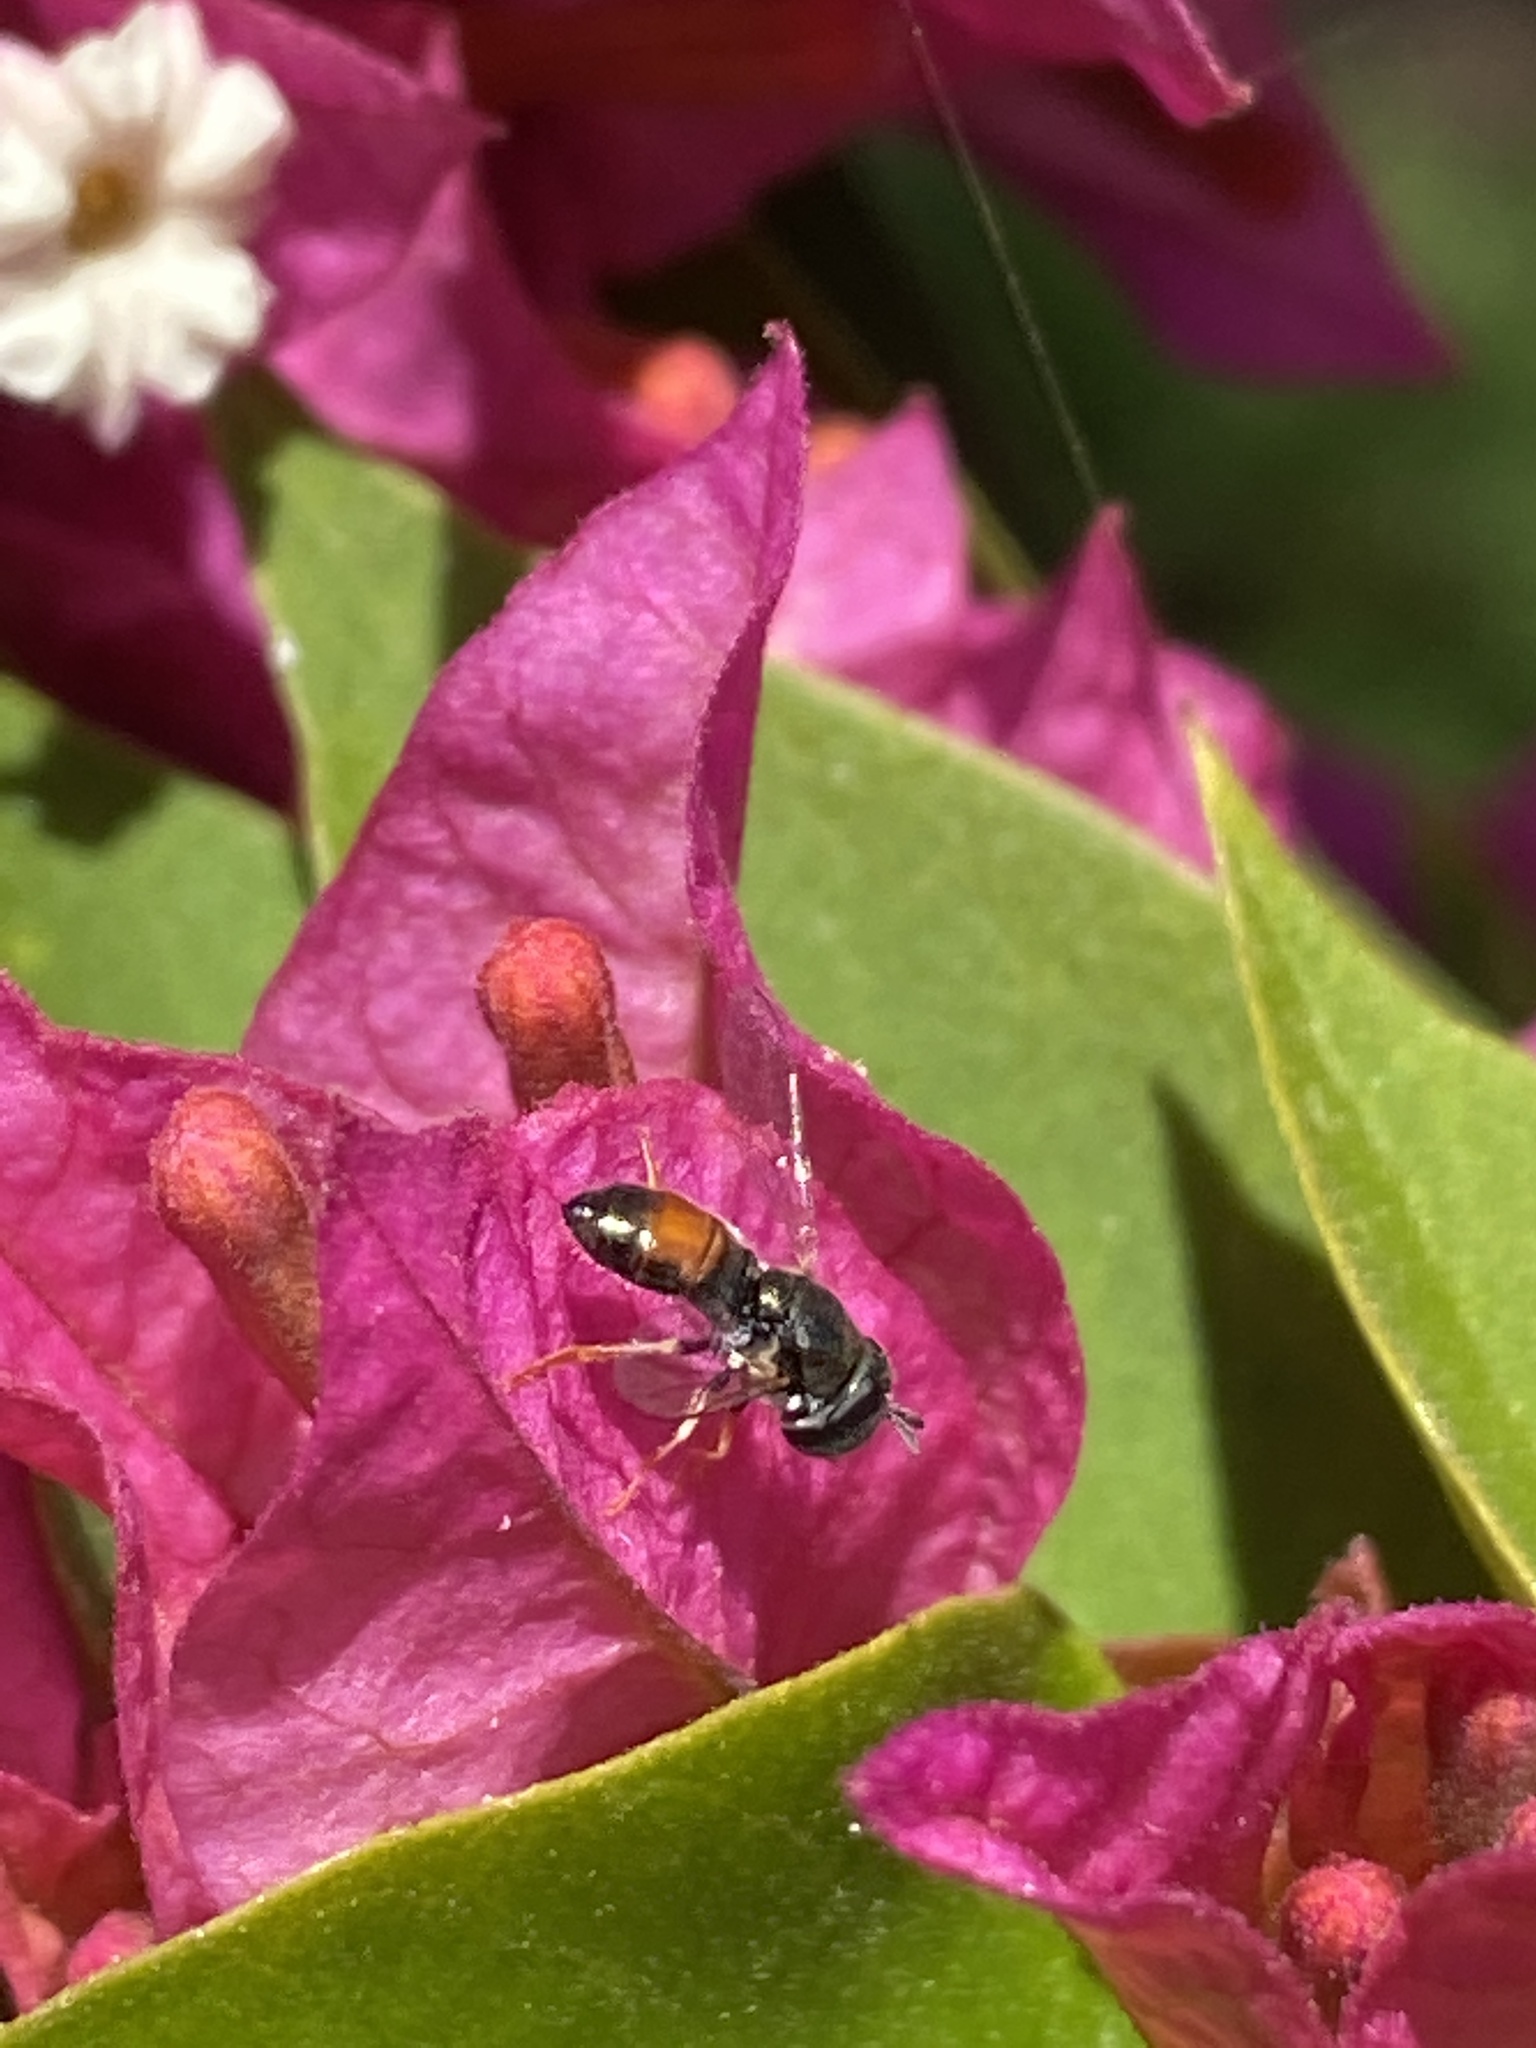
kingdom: Animalia
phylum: Arthropoda
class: Insecta
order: Diptera
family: Syrphidae
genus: Paragus
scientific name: Paragus tibialis
